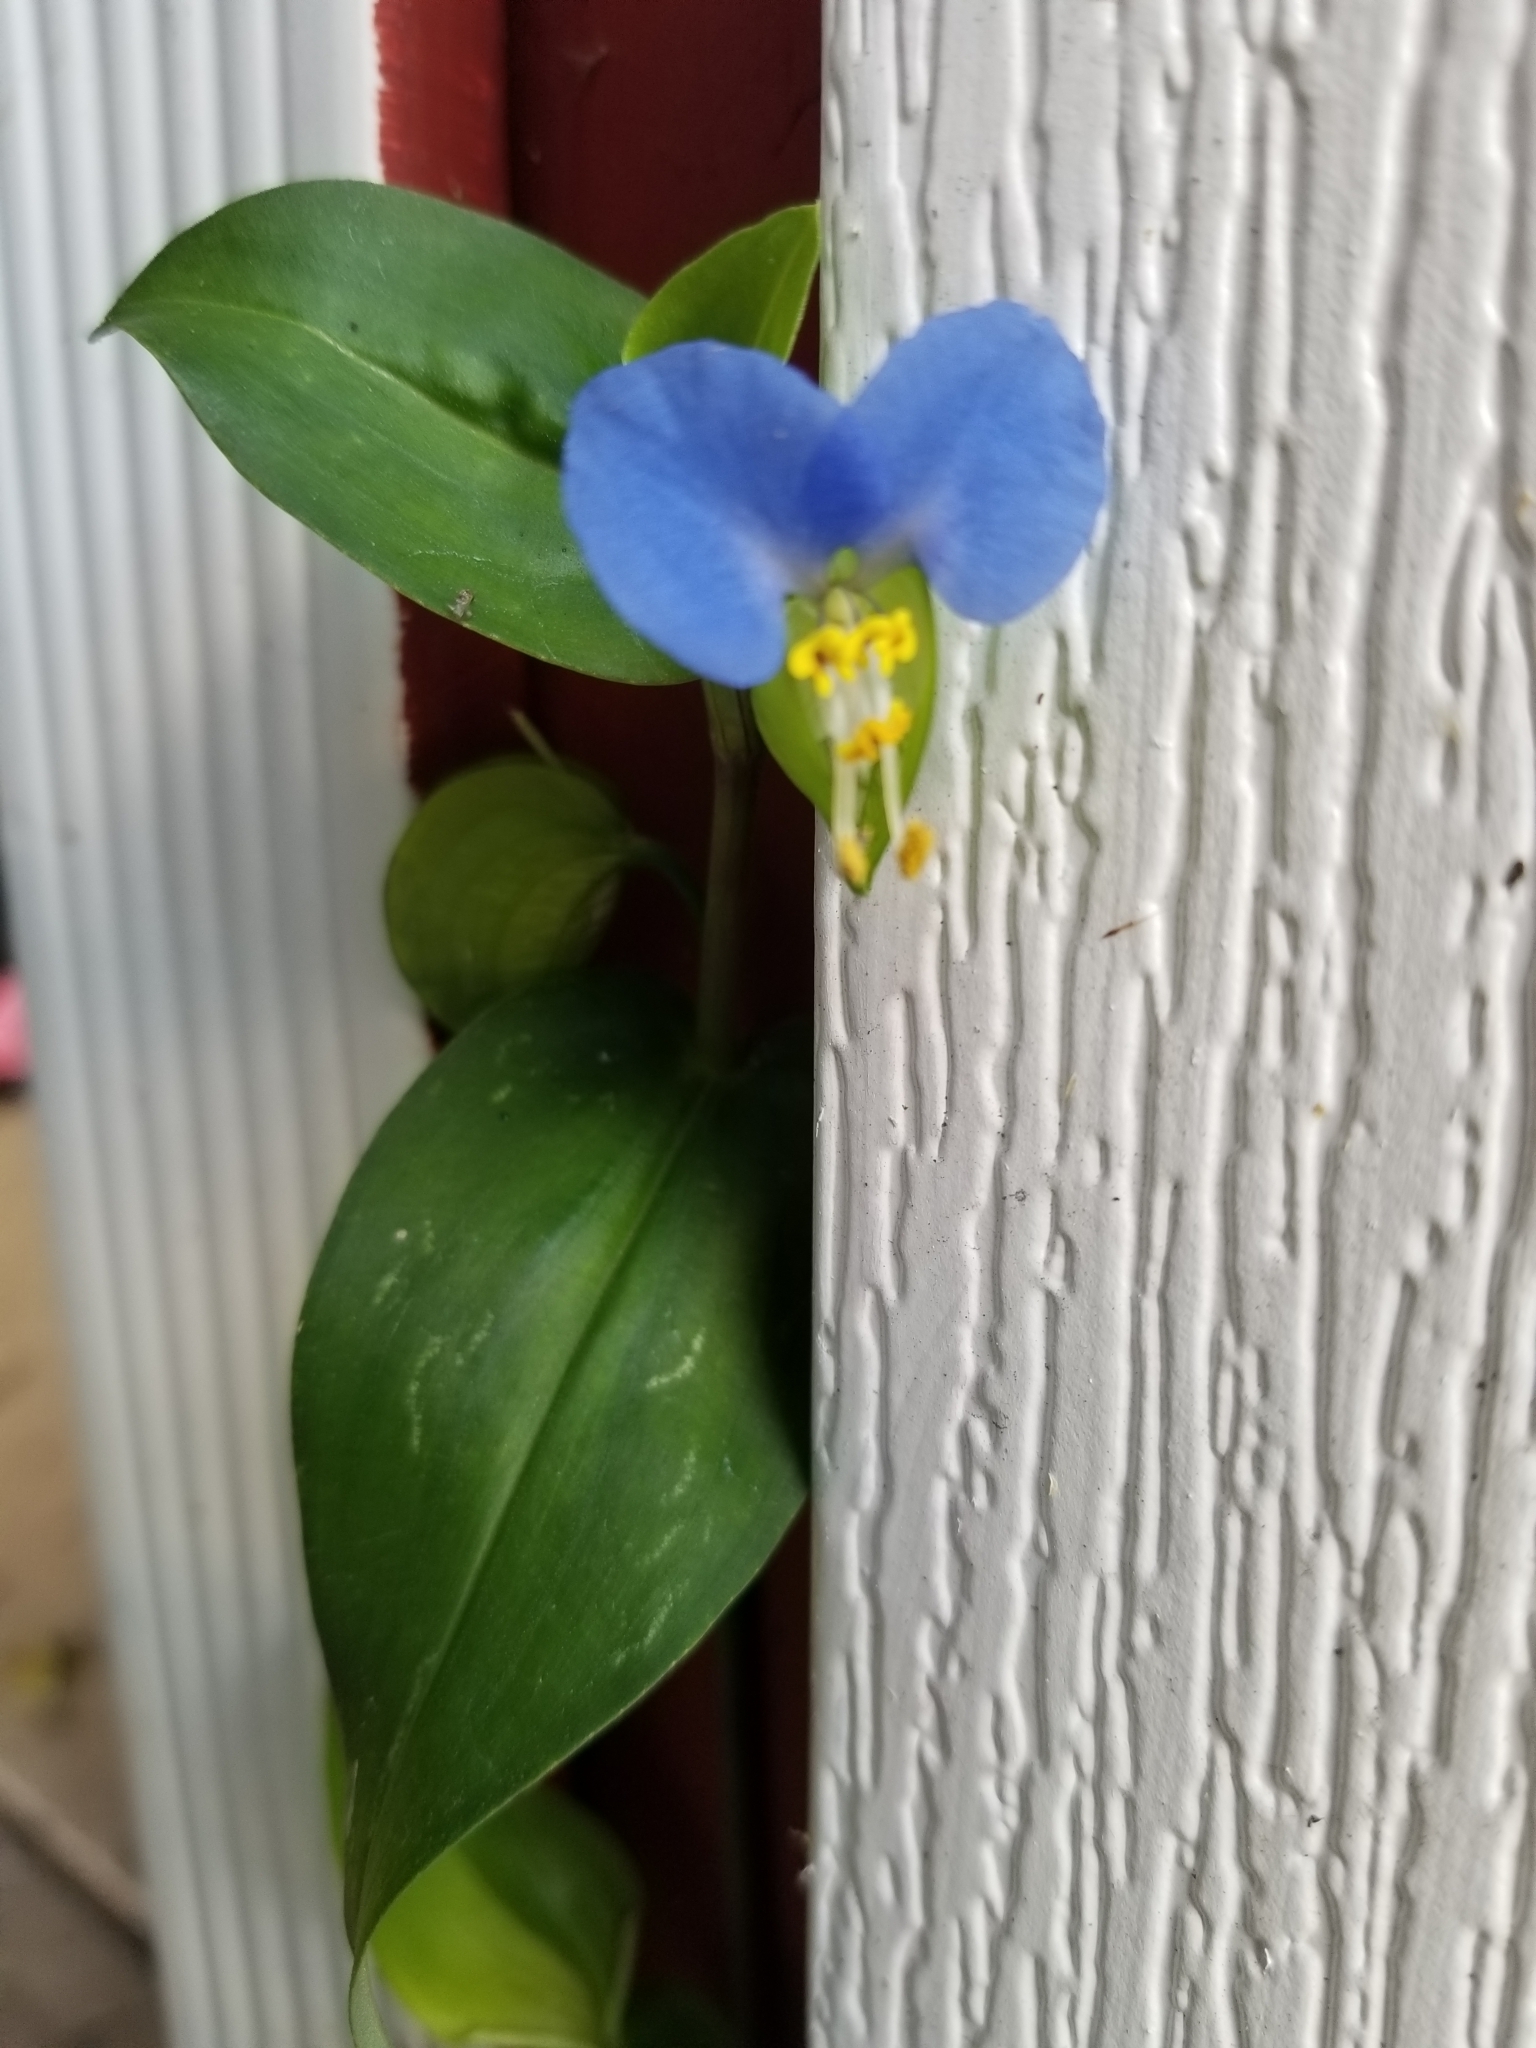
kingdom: Plantae
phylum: Tracheophyta
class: Liliopsida
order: Commelinales
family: Commelinaceae
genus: Commelina
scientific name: Commelina communis
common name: Asiatic dayflower
